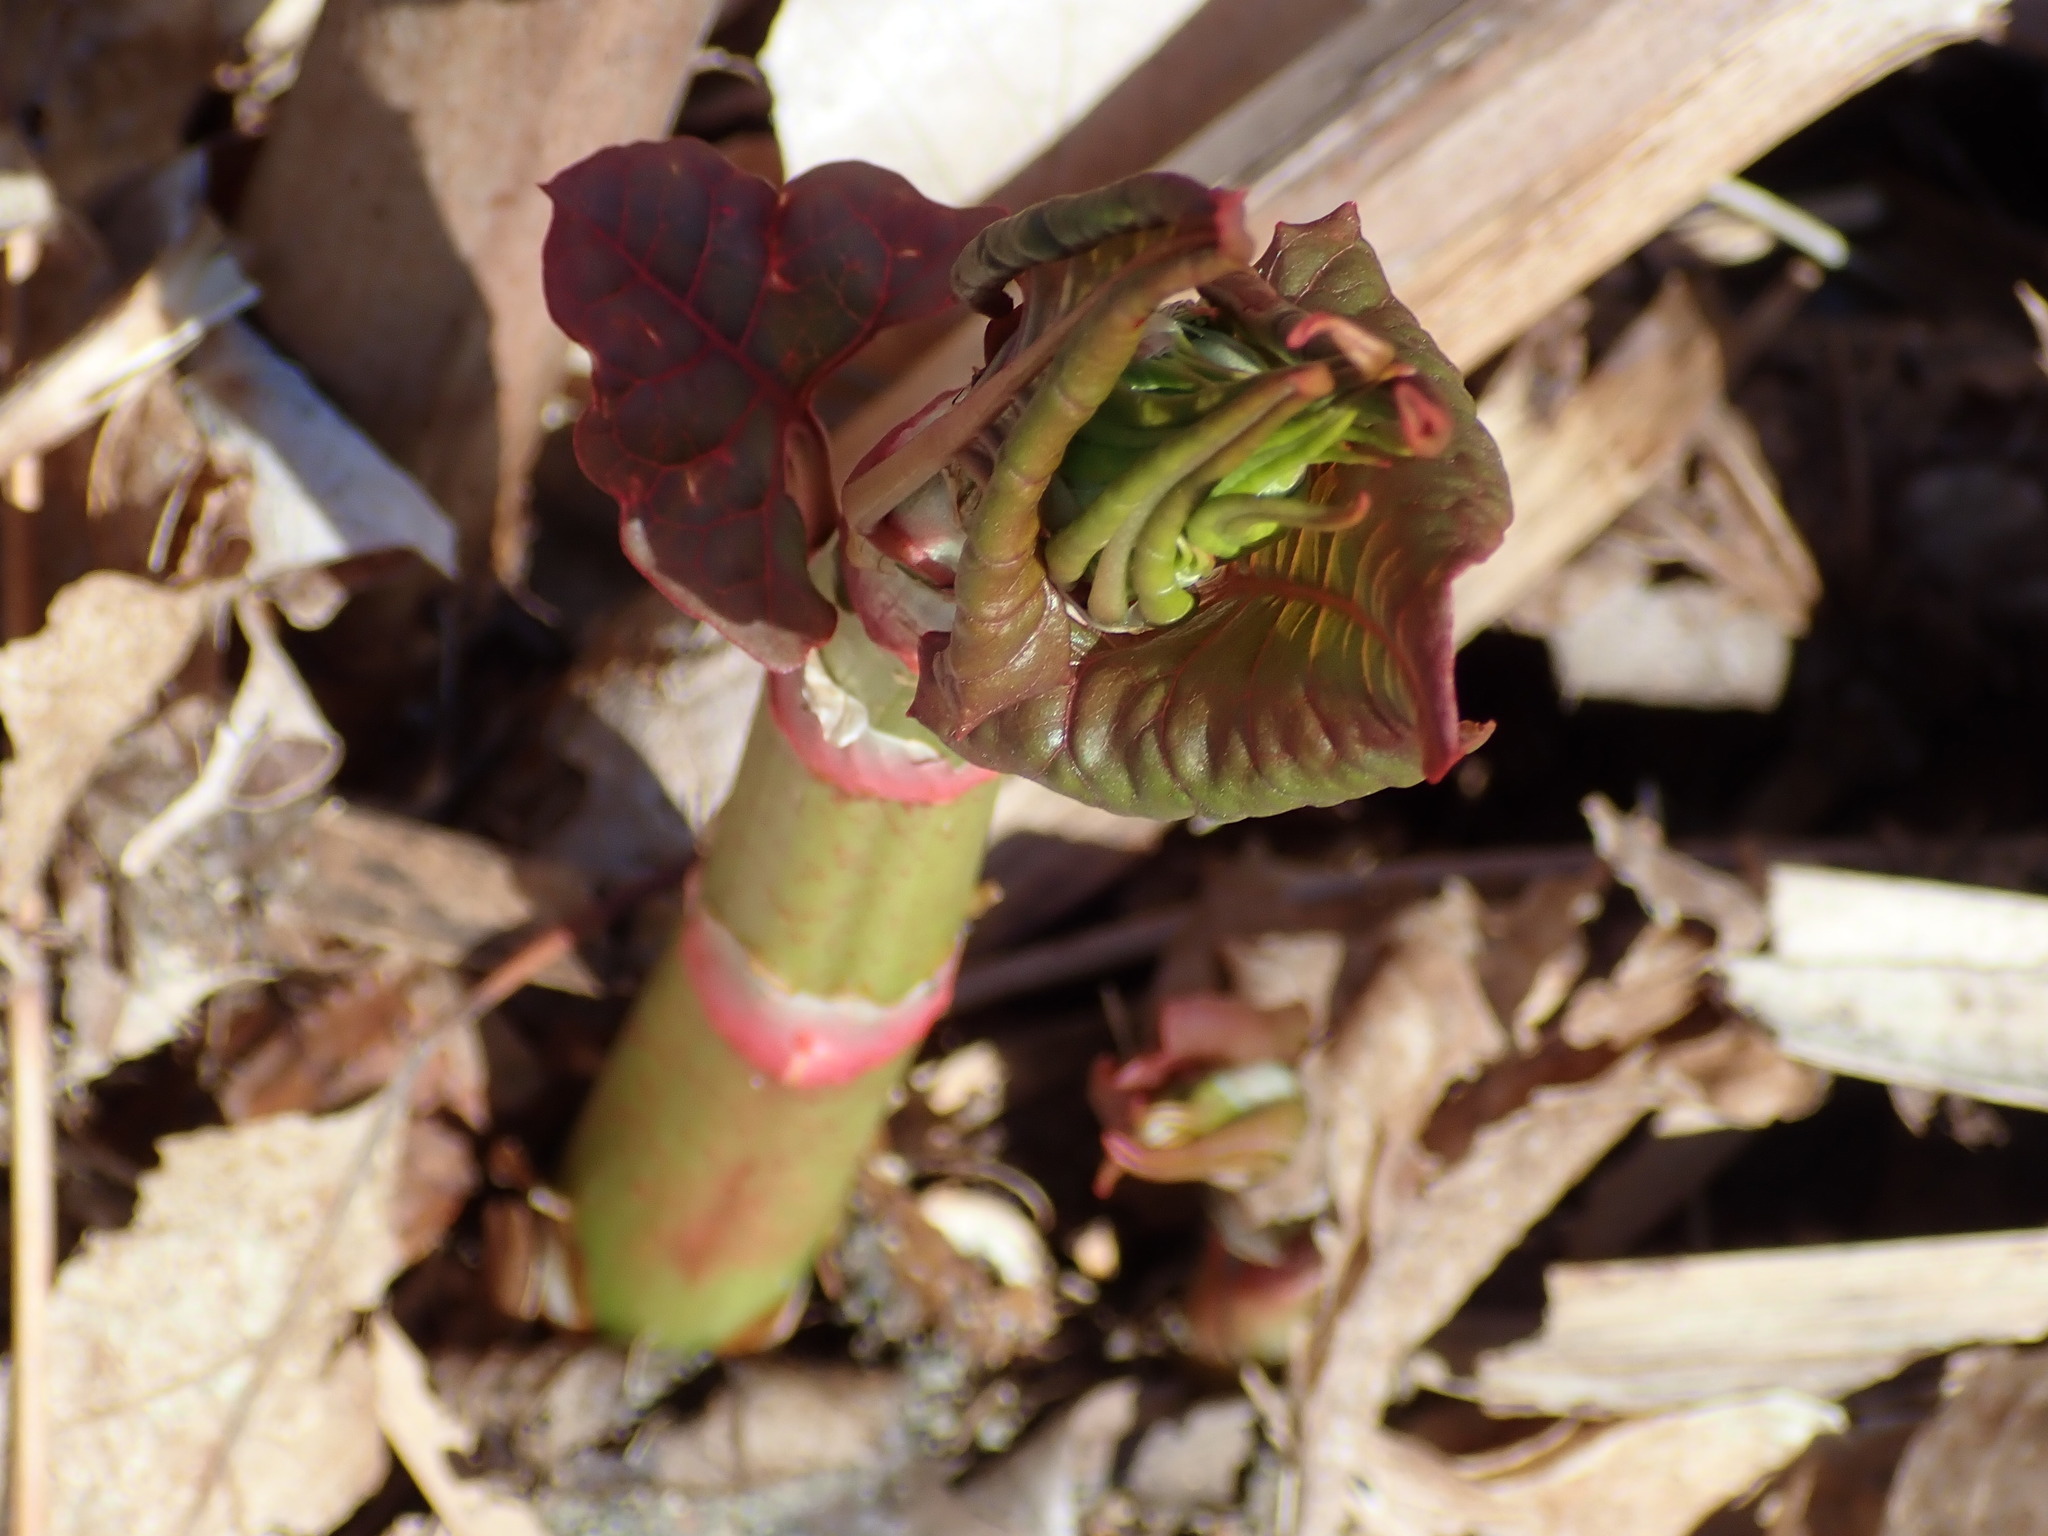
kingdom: Plantae
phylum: Tracheophyta
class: Magnoliopsida
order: Caryophyllales
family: Polygonaceae
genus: Reynoutria
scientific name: Reynoutria japonica
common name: Japanese knotweed
